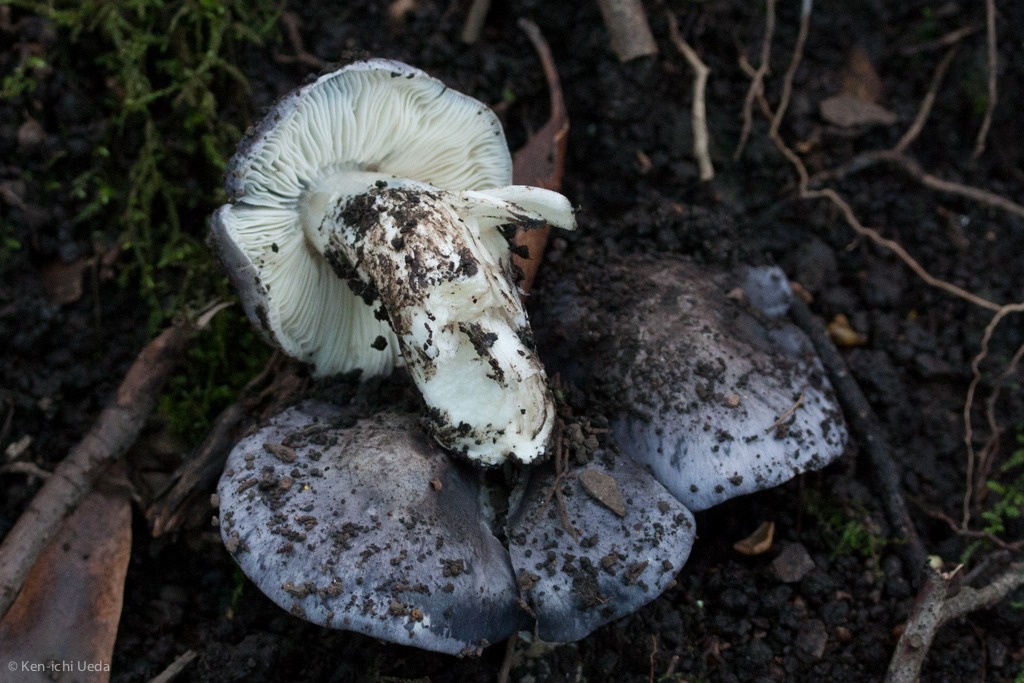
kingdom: Fungi
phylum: Basidiomycota
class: Agaricomycetes
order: Agaricales
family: Entolomataceae
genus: Entoloma
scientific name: Entoloma medianox
